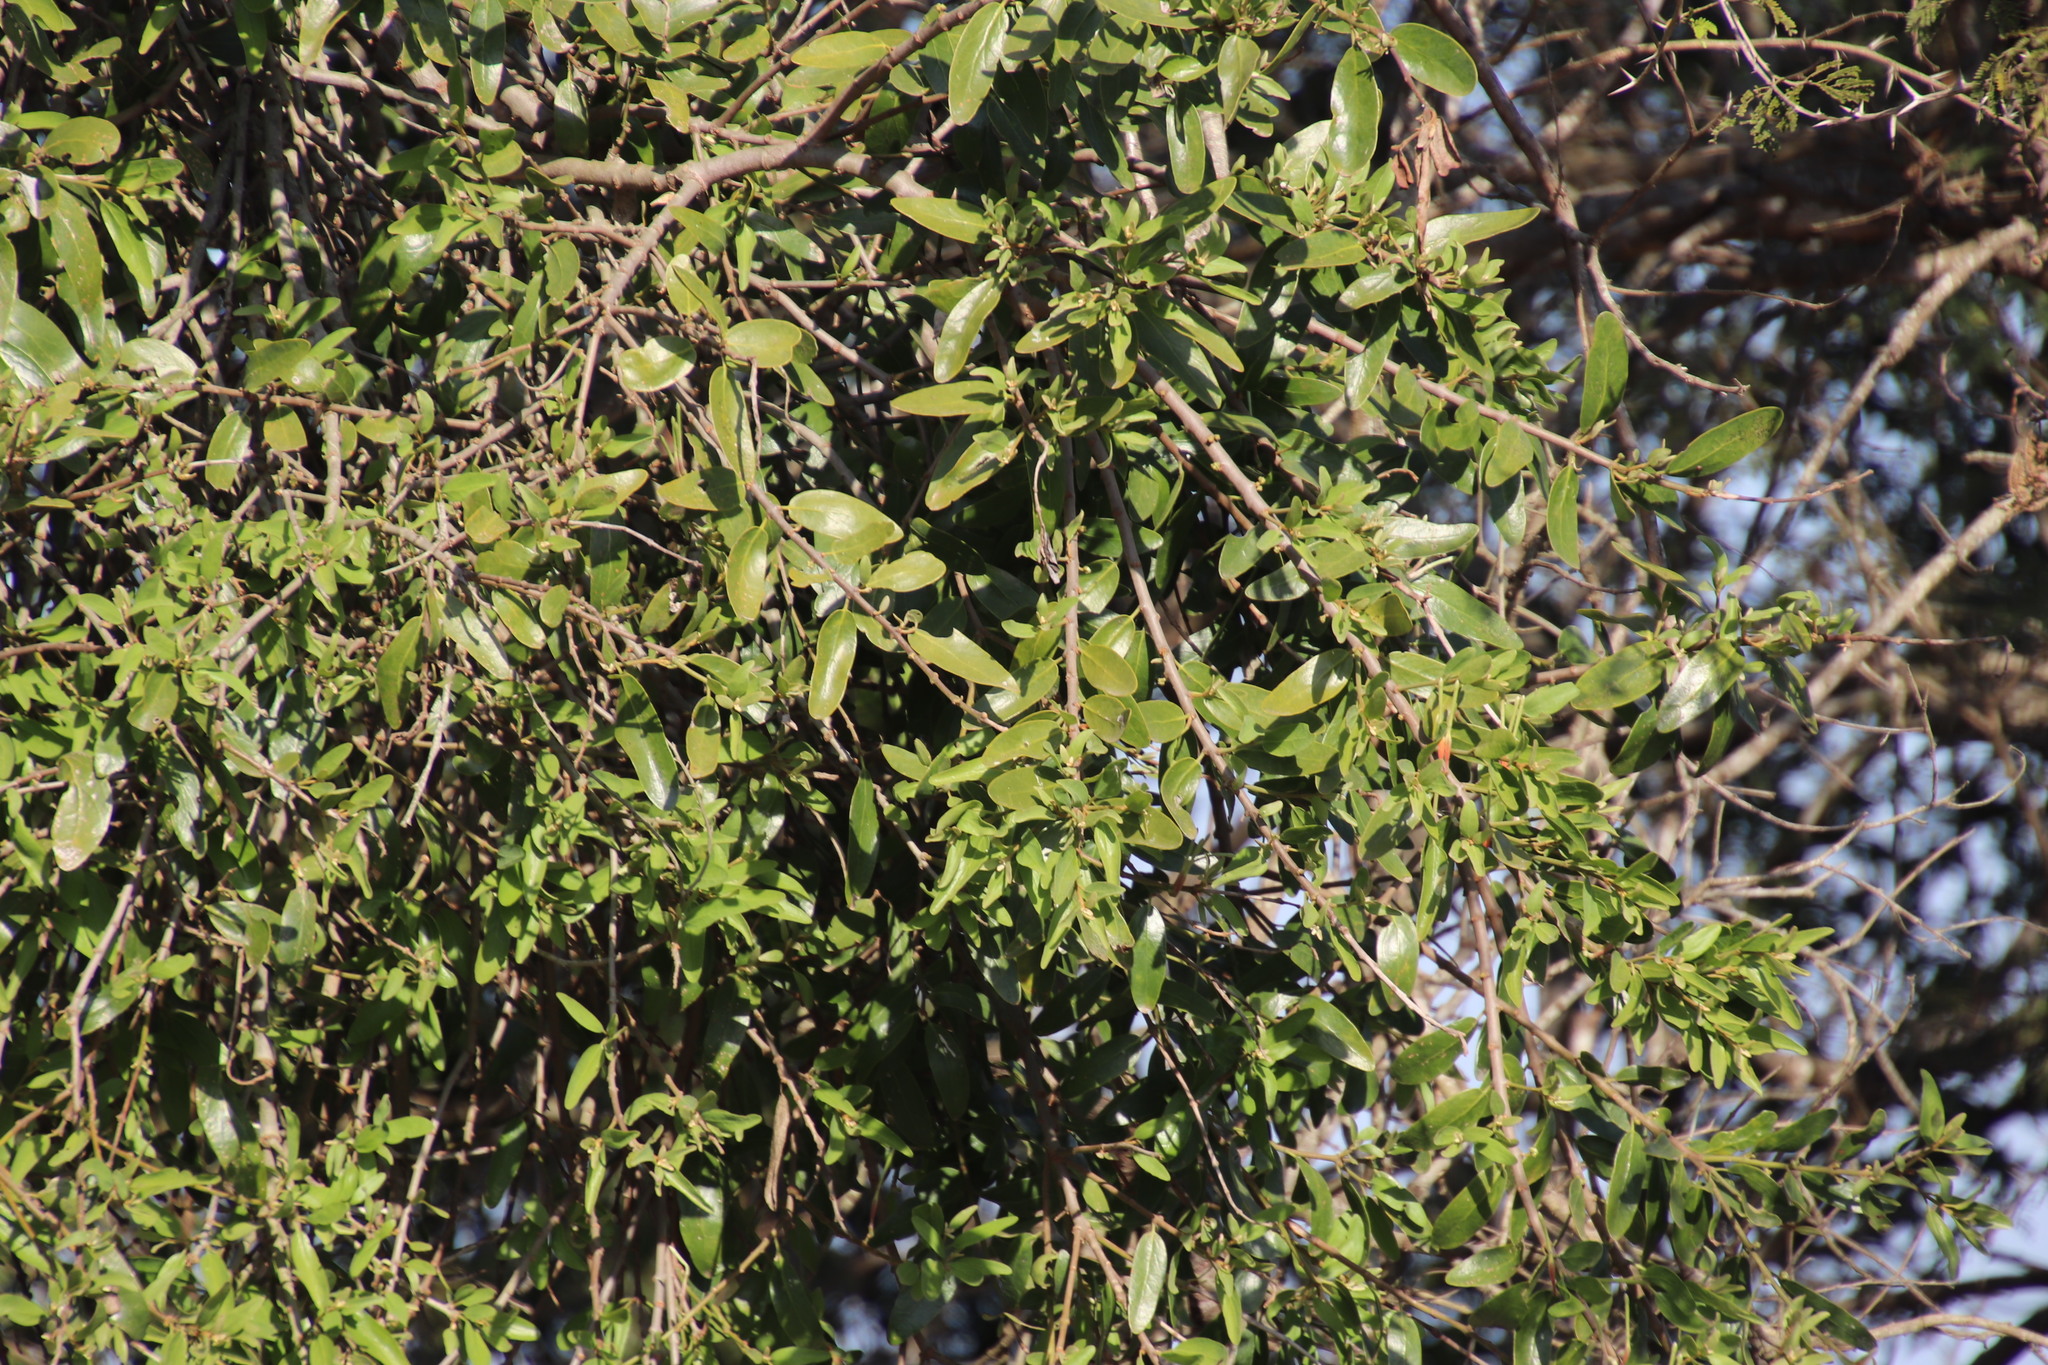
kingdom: Plantae
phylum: Tracheophyta
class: Magnoliopsida
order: Santalales
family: Loranthaceae
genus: Erianthemum
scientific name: Erianthemum dregei
